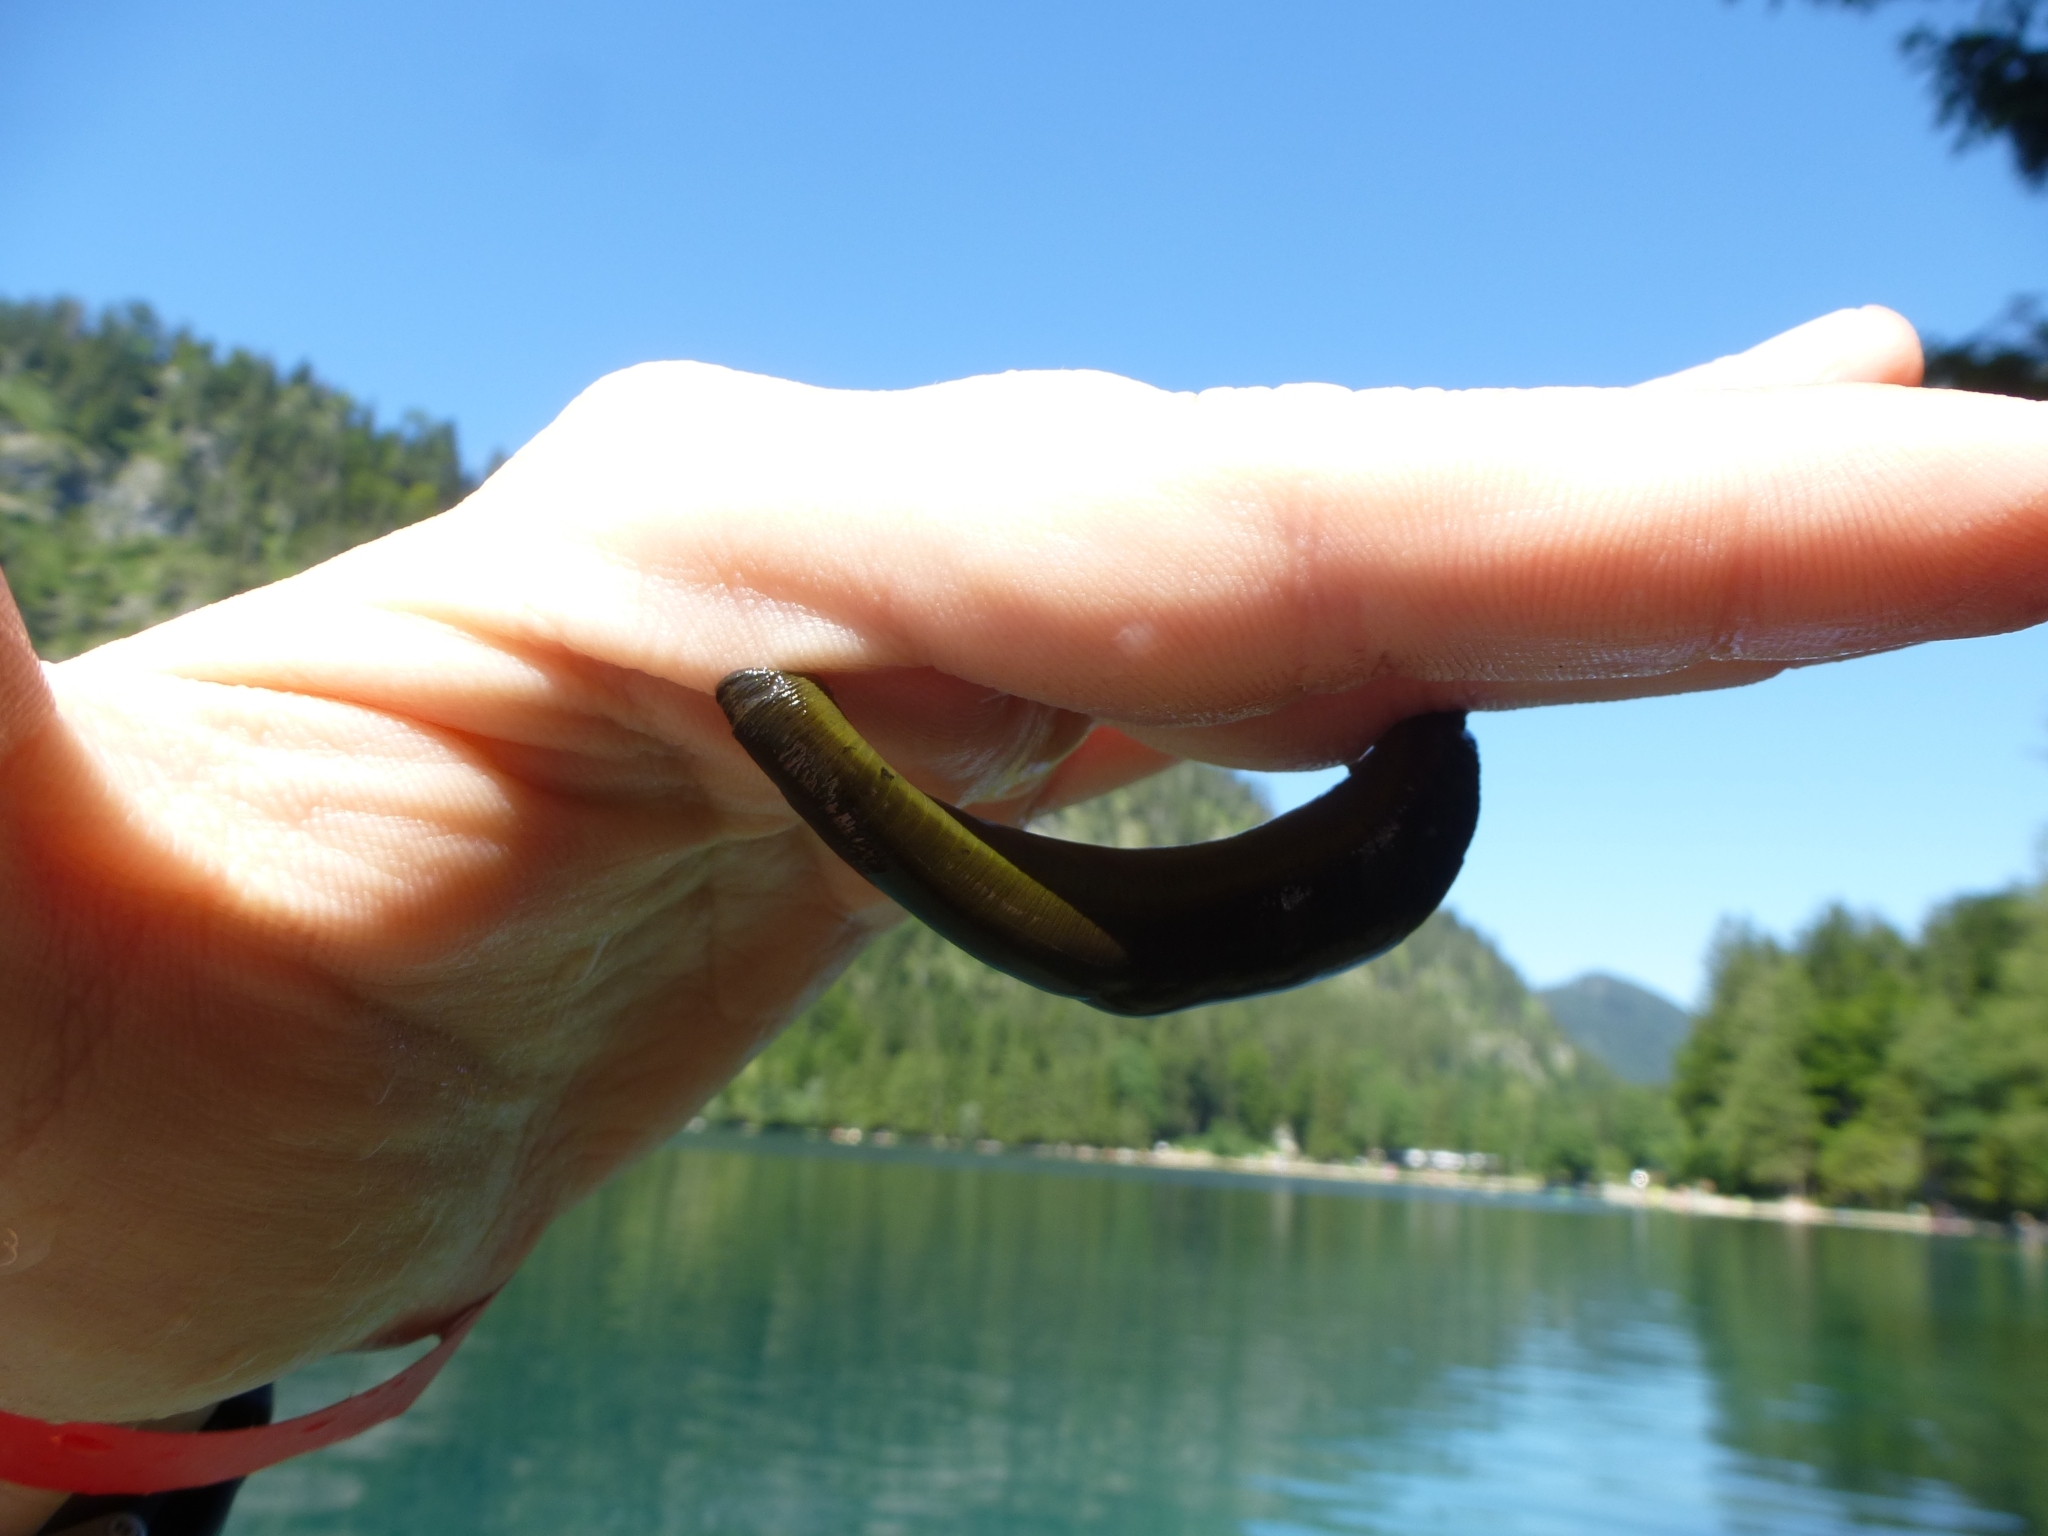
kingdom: Animalia
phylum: Annelida
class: Clitellata
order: Arhynchobdellida
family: Haemopidae
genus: Haemopis
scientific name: Haemopis sanguisuga
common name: Horse leech
